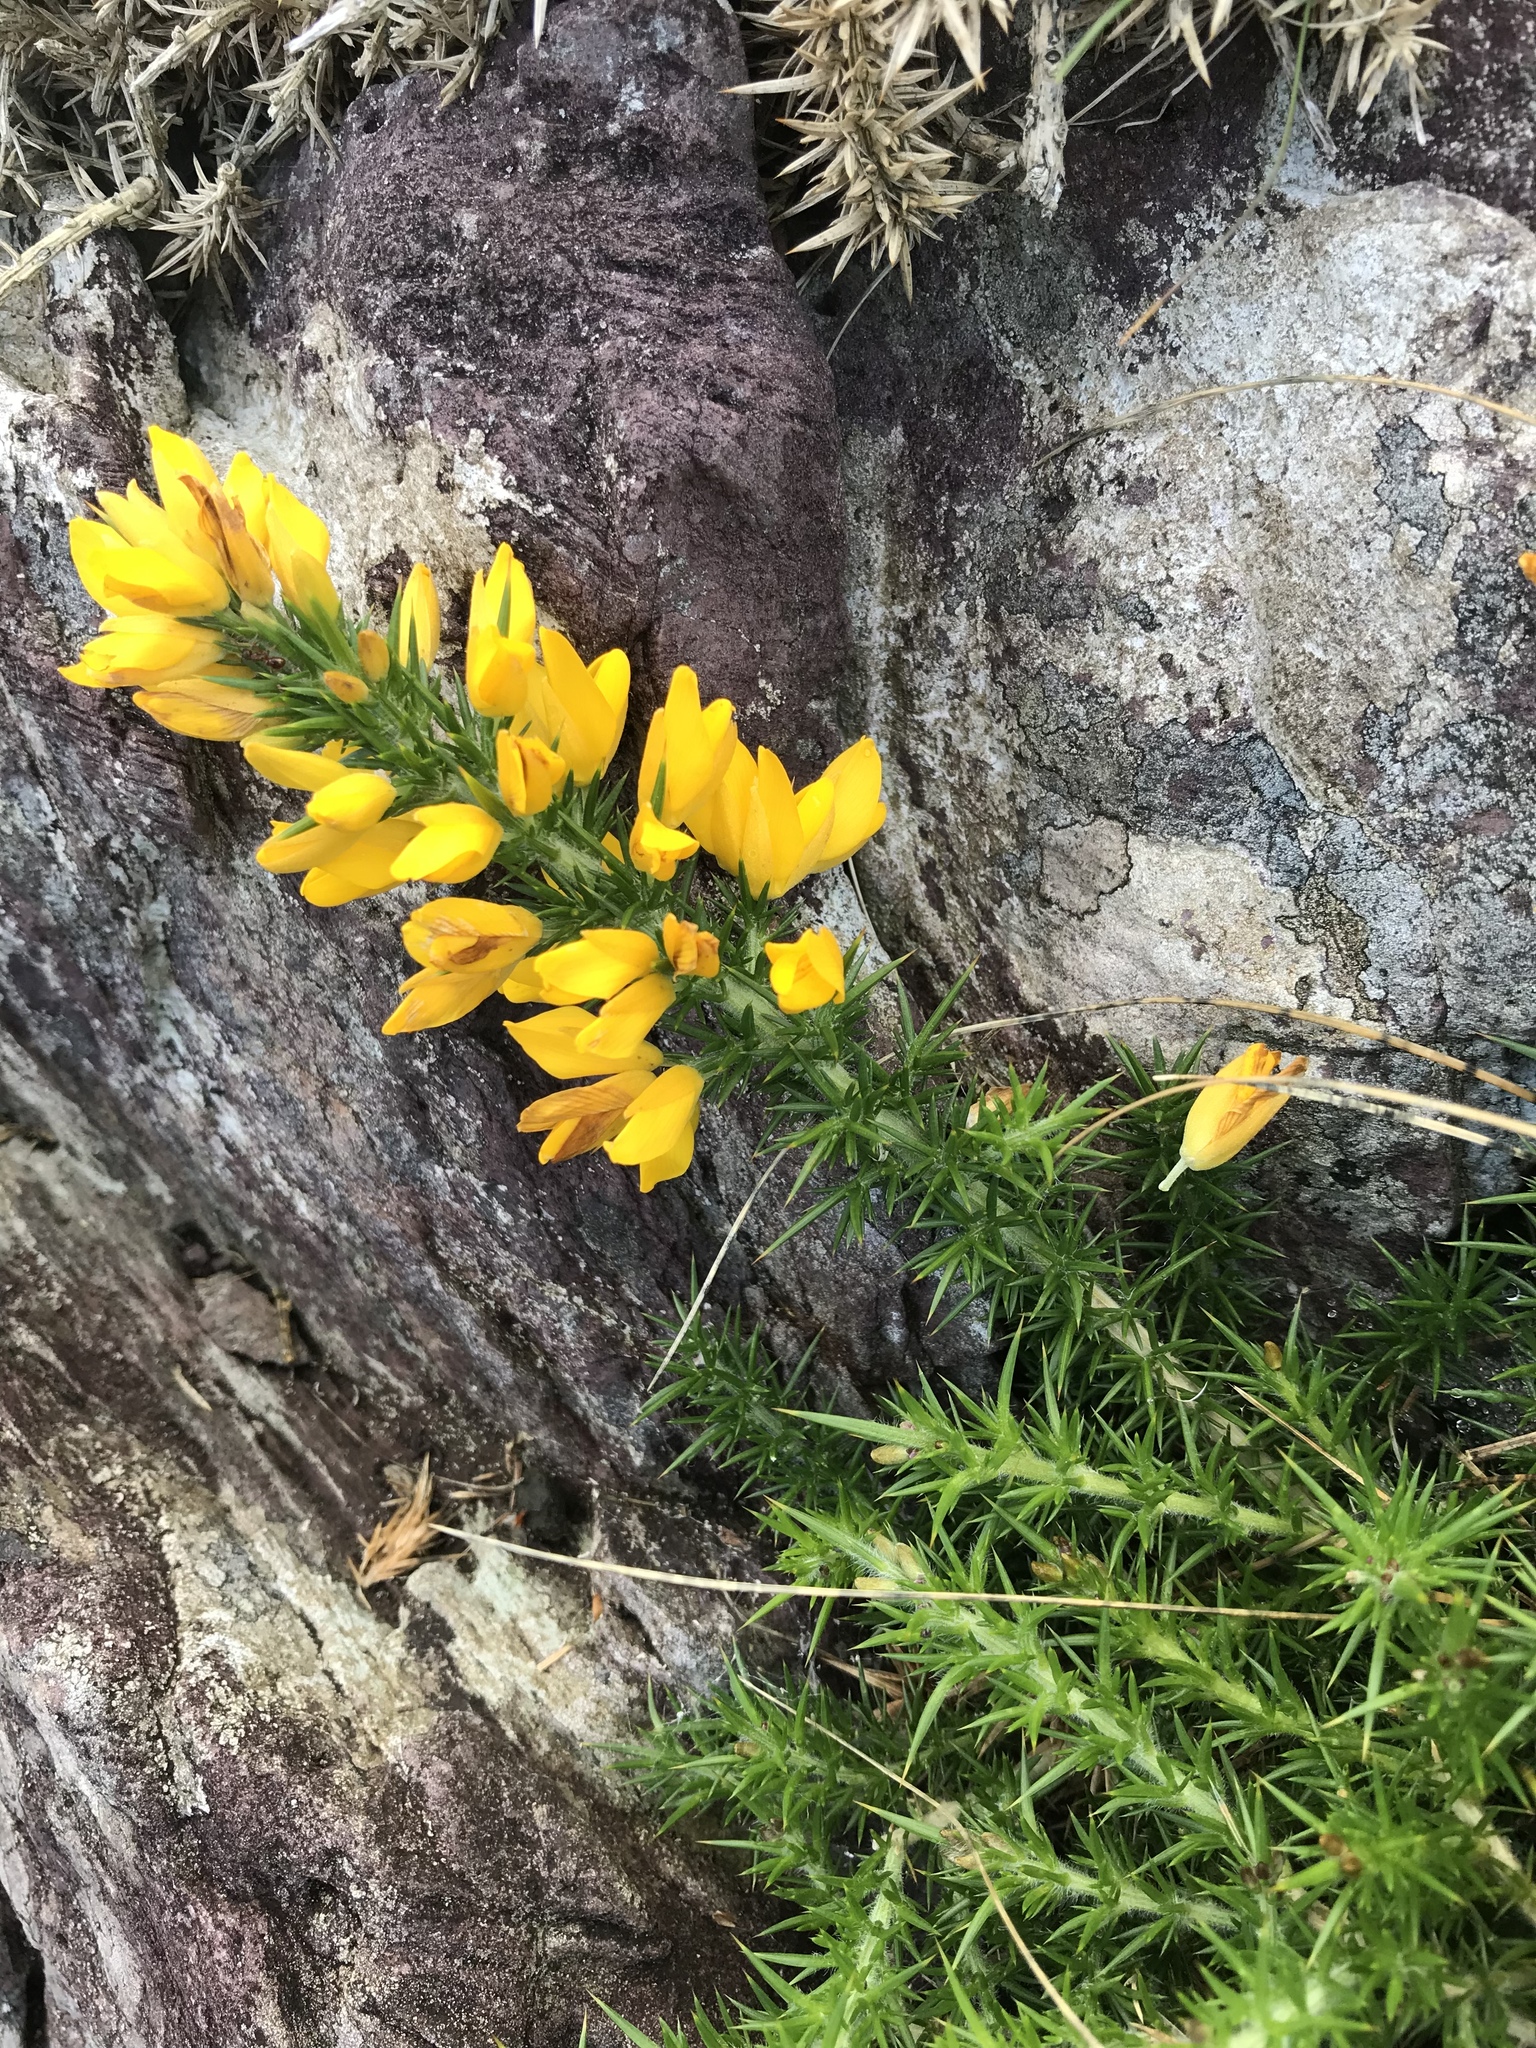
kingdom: Plantae
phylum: Tracheophyta
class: Magnoliopsida
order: Fabales
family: Fabaceae
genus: Ulex
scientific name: Ulex gallii
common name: Western gorse
